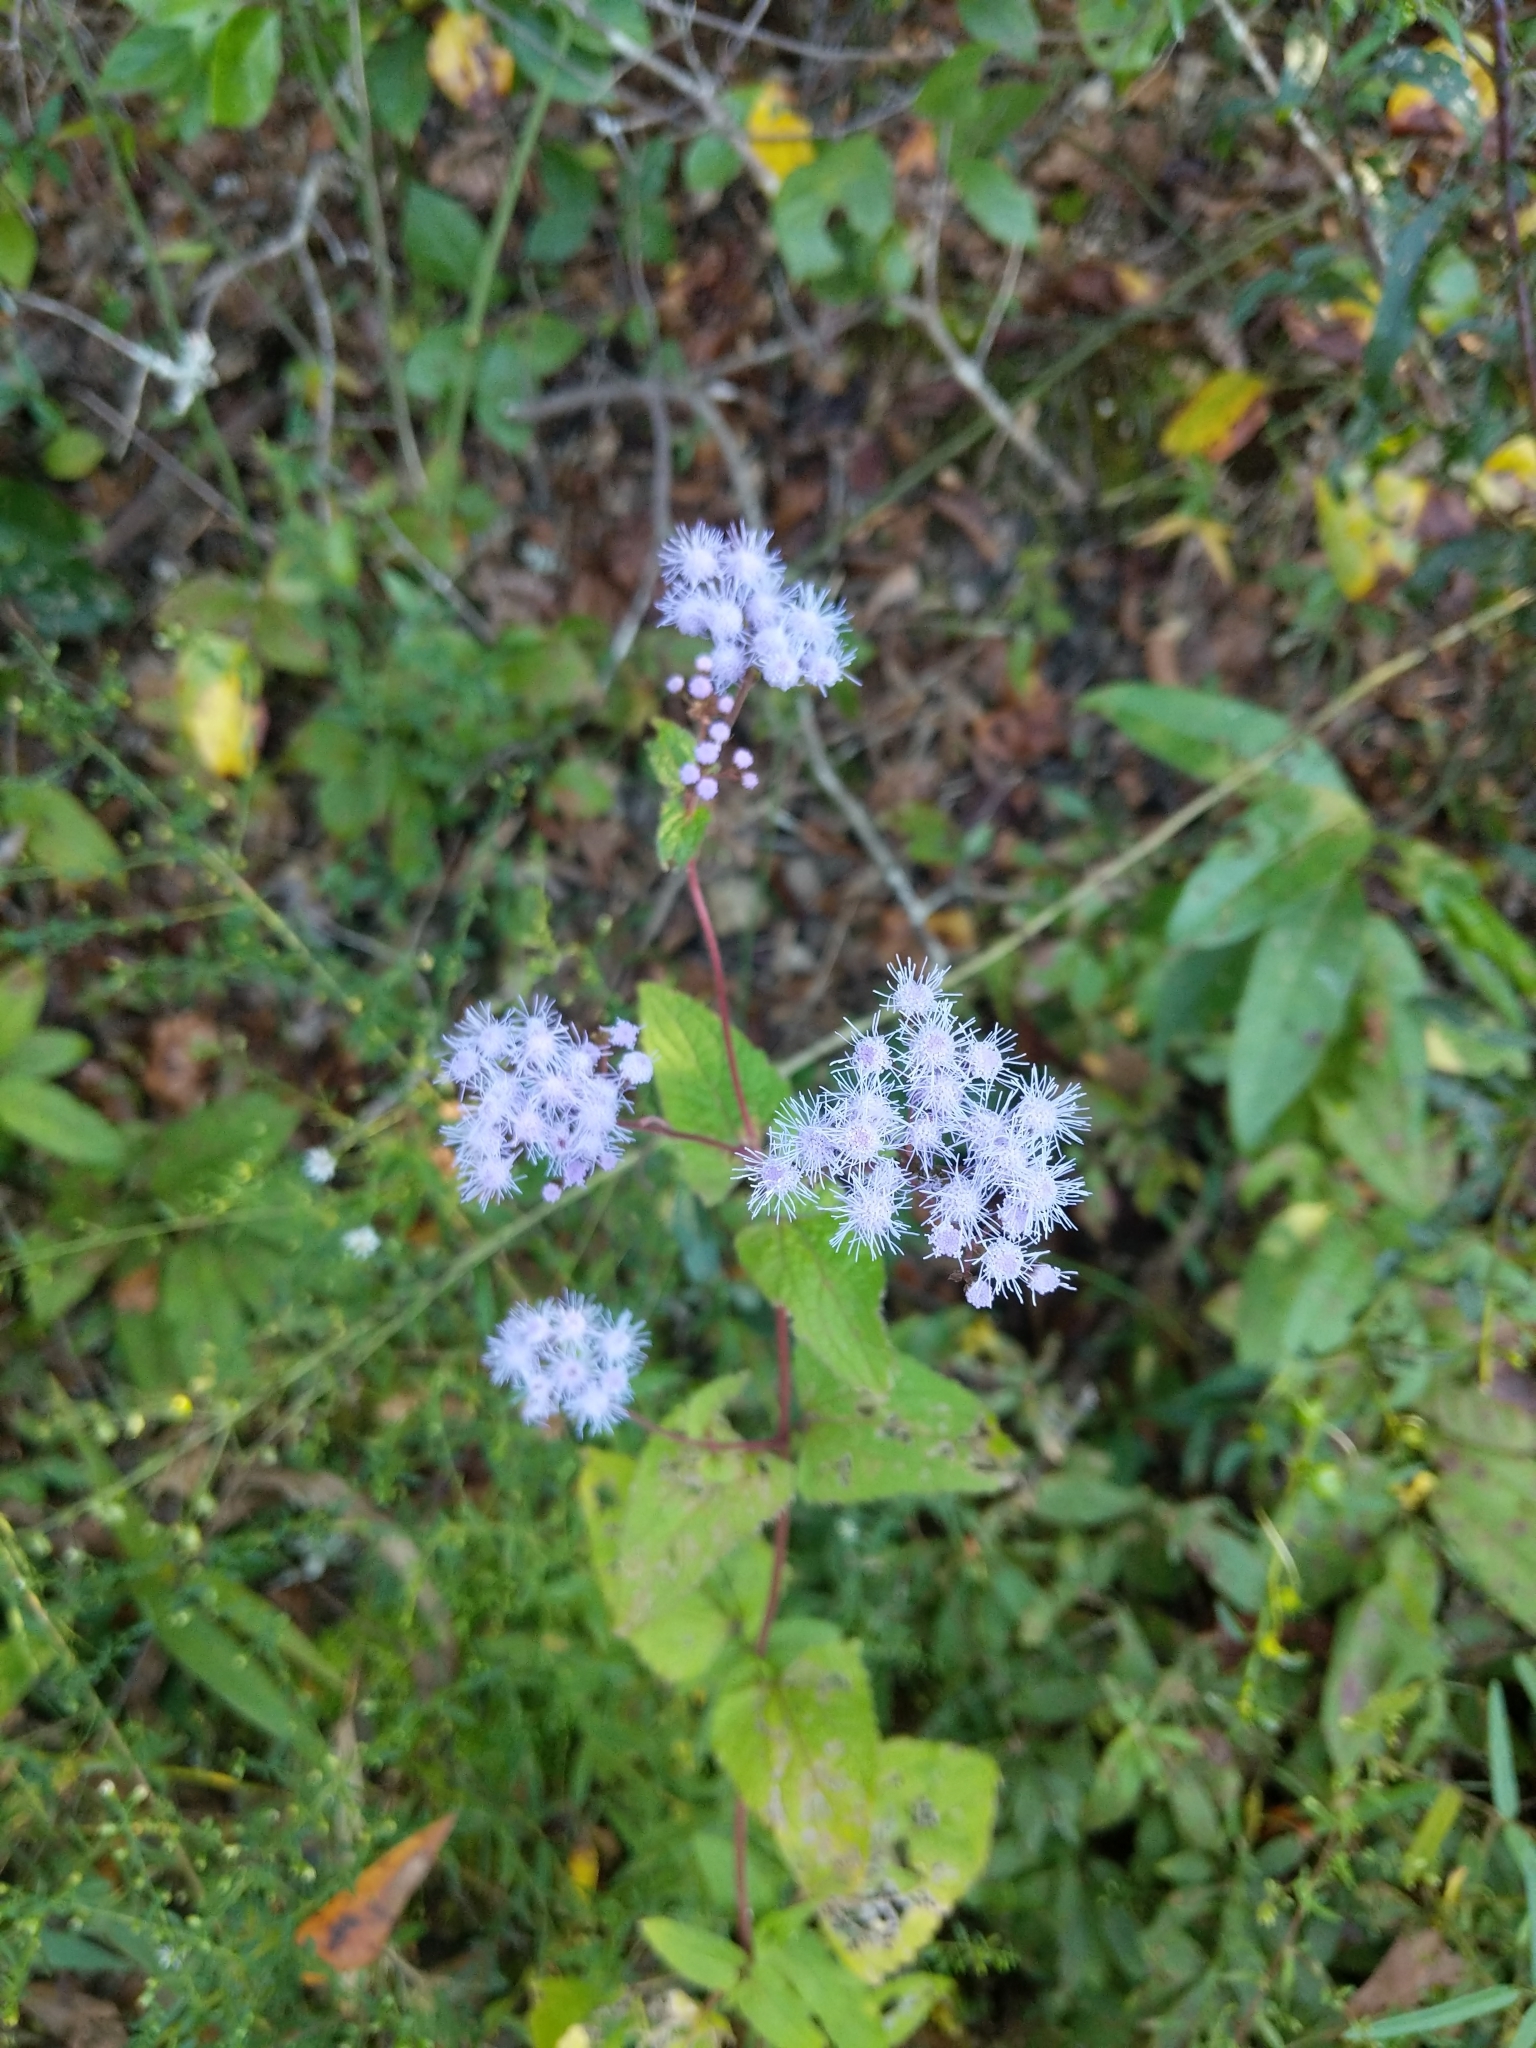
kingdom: Plantae
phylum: Tracheophyta
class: Magnoliopsida
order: Asterales
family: Asteraceae
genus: Conoclinium
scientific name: Conoclinium coelestinum
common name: Blue mistflower
